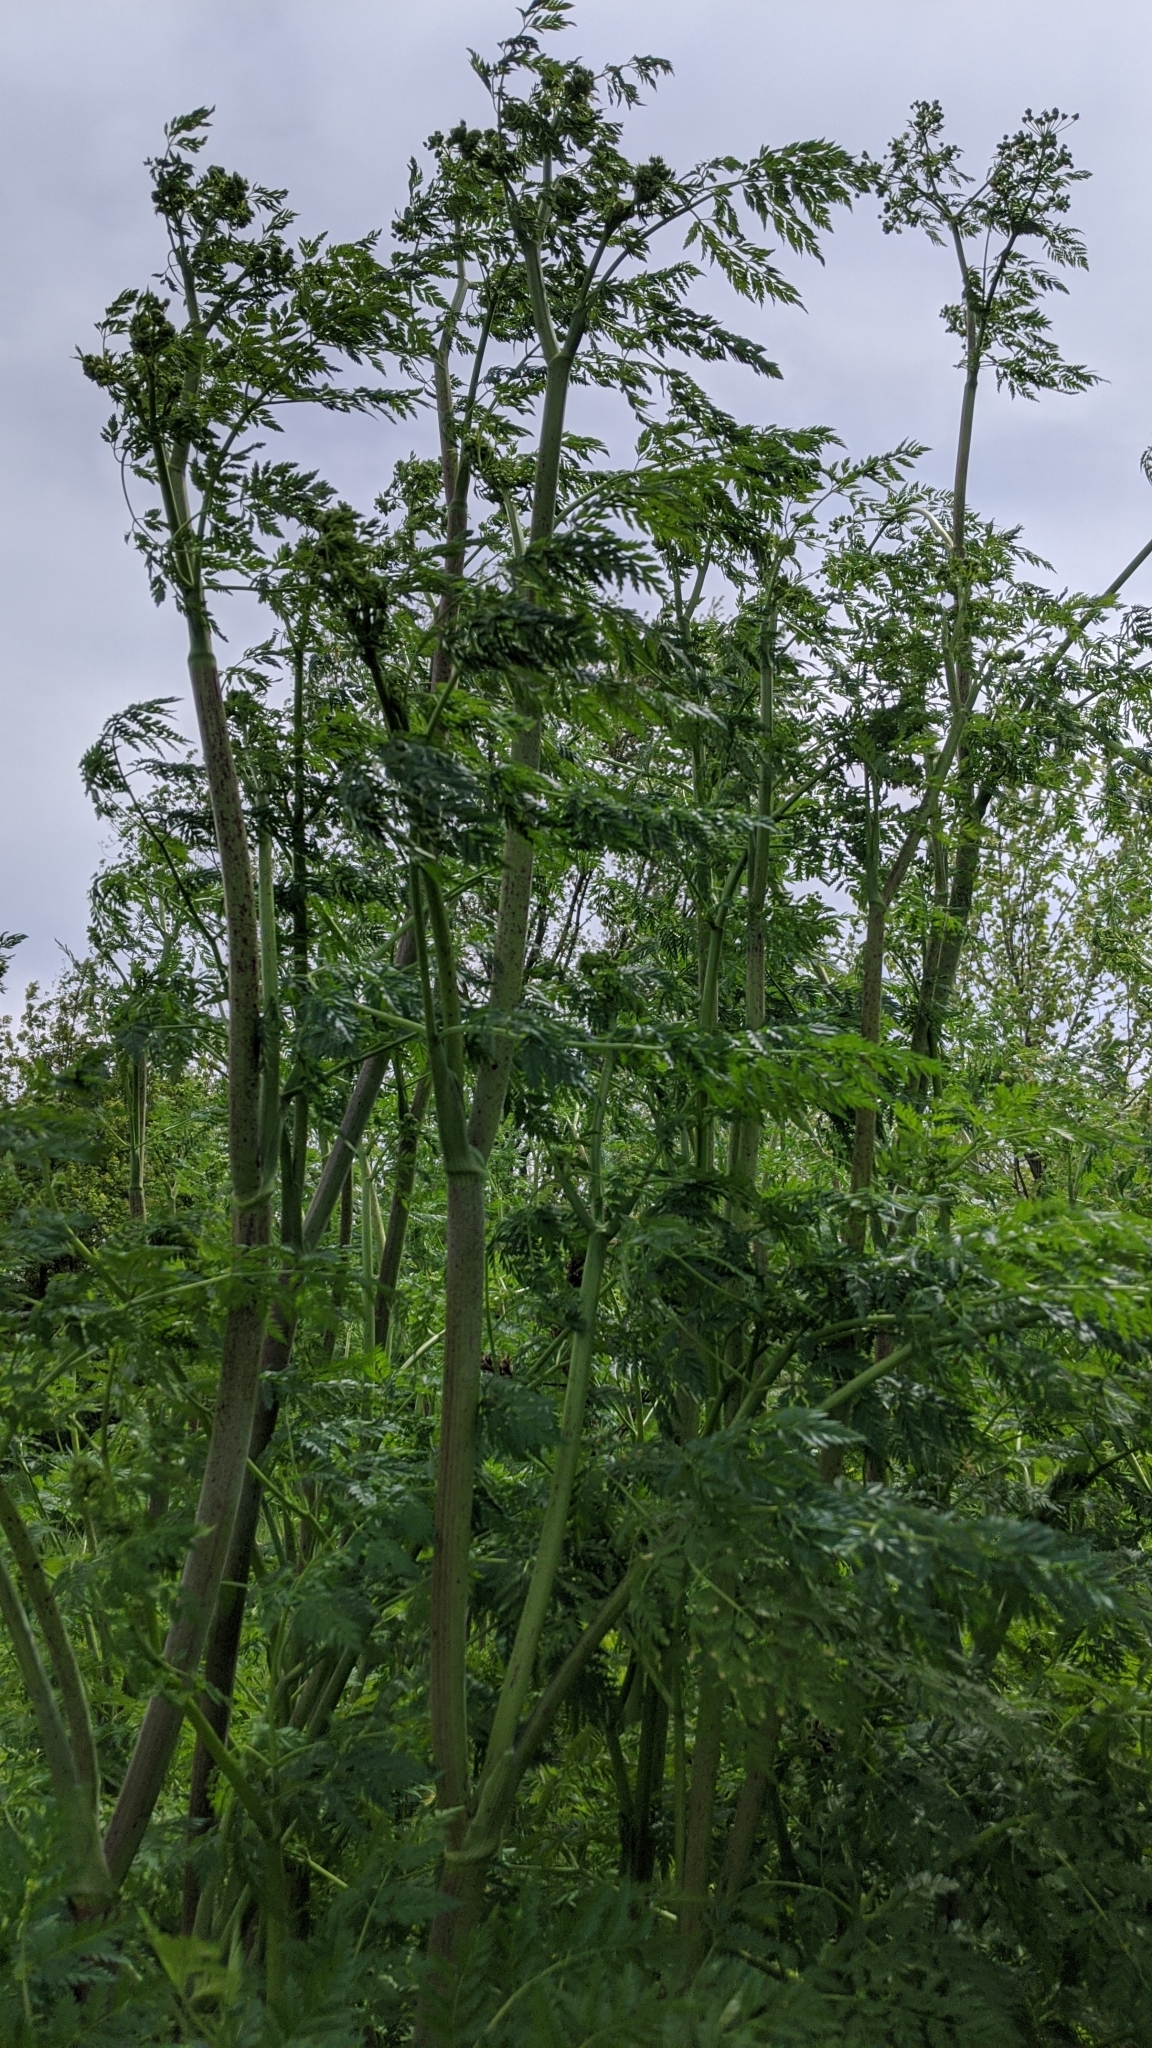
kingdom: Plantae
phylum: Tracheophyta
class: Magnoliopsida
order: Apiales
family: Apiaceae
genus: Conium
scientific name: Conium maculatum
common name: Hemlock
